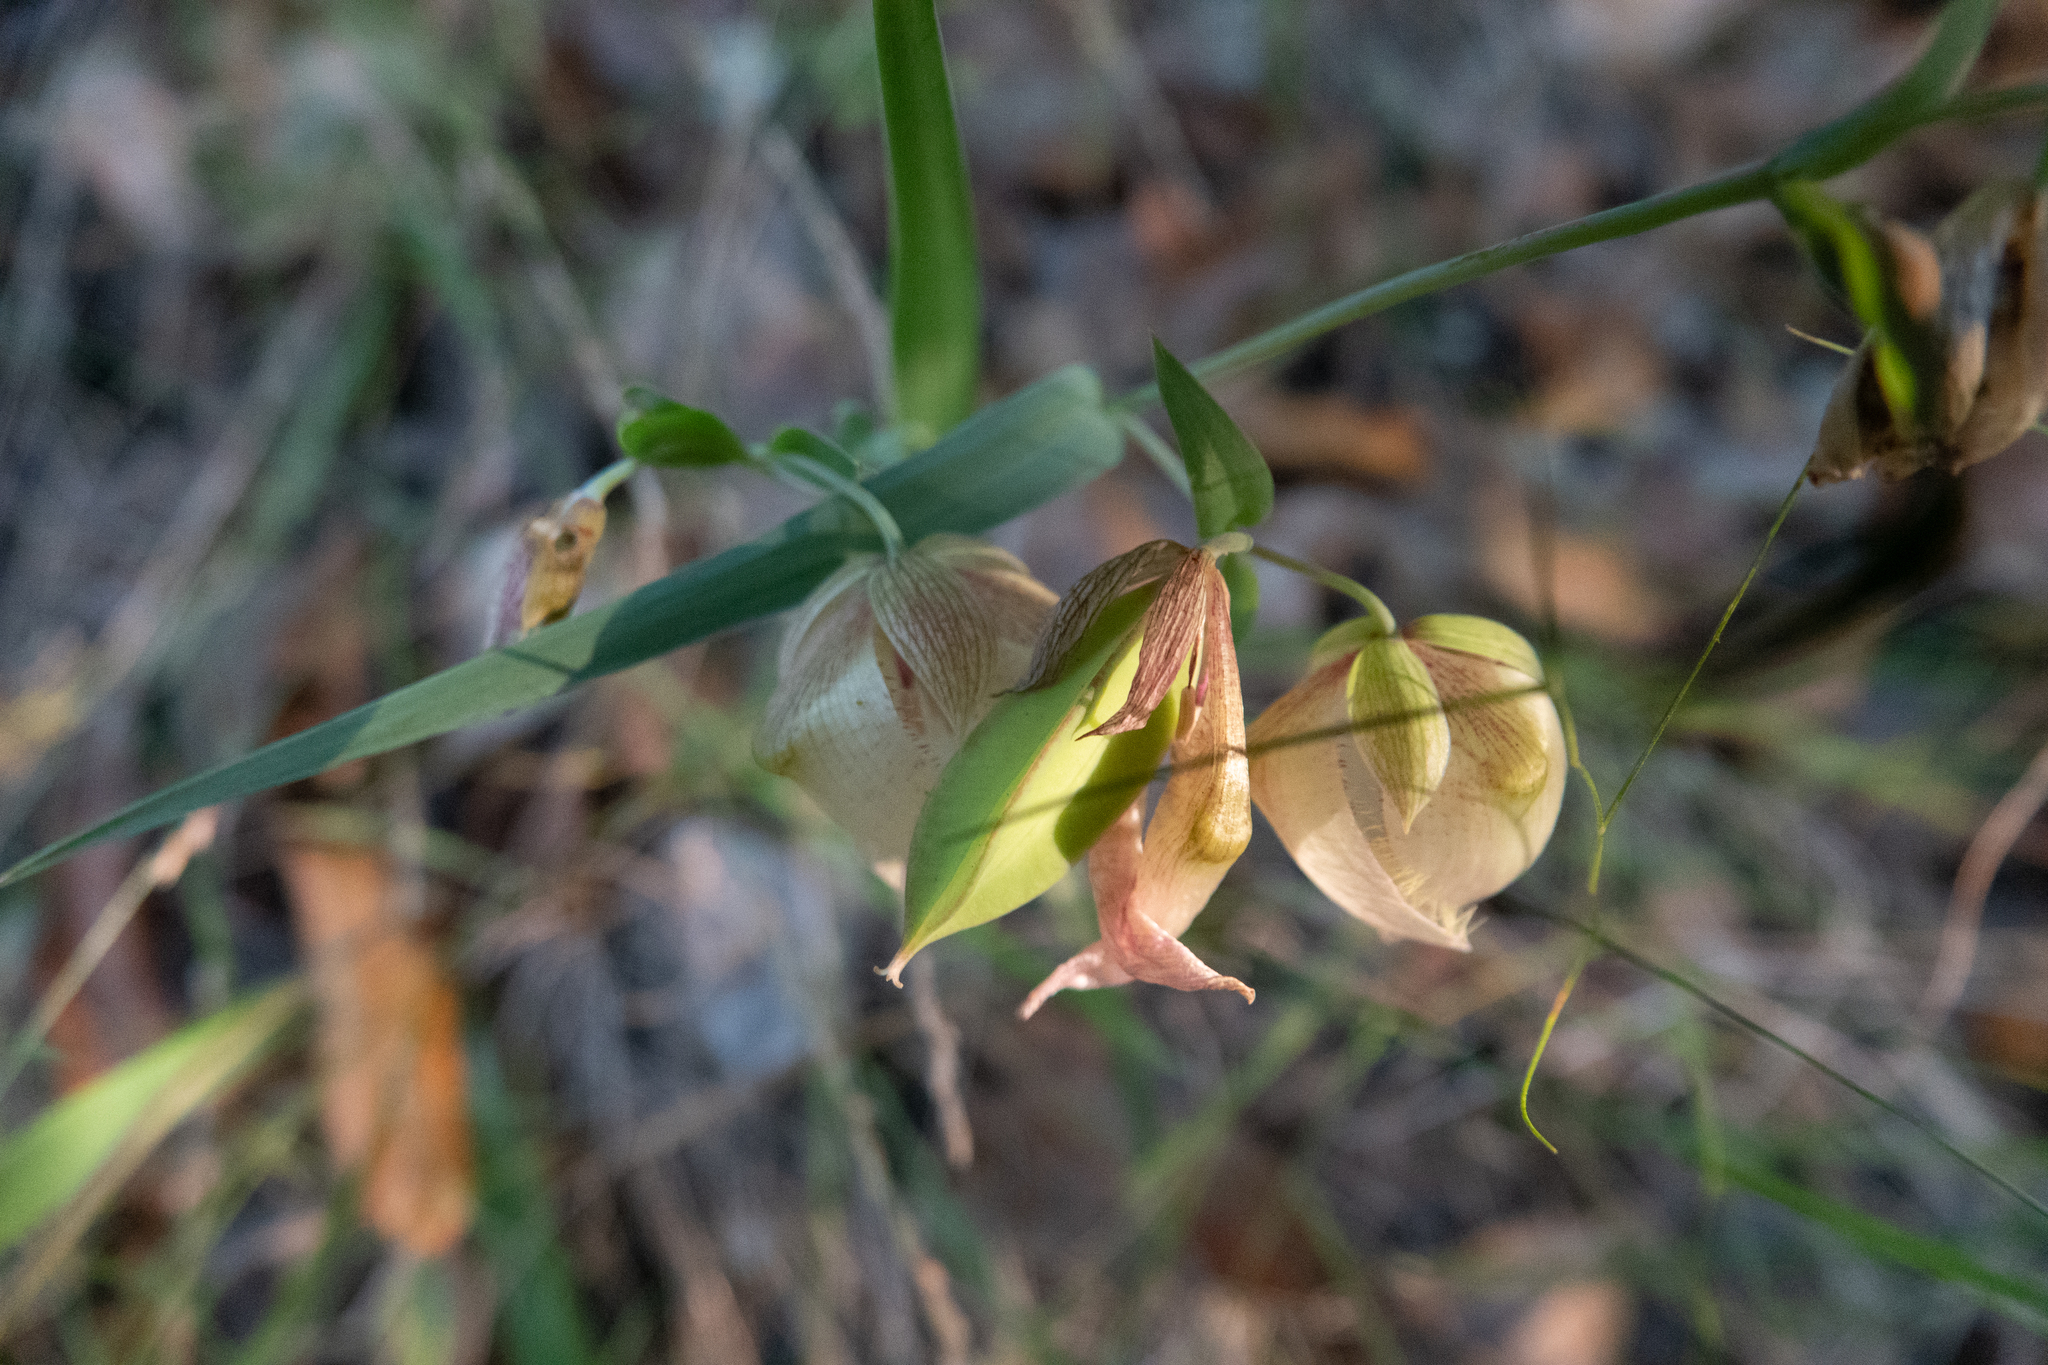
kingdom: Plantae
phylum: Tracheophyta
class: Liliopsida
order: Liliales
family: Liliaceae
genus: Calochortus
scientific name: Calochortus albus
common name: Fairy-lantern
